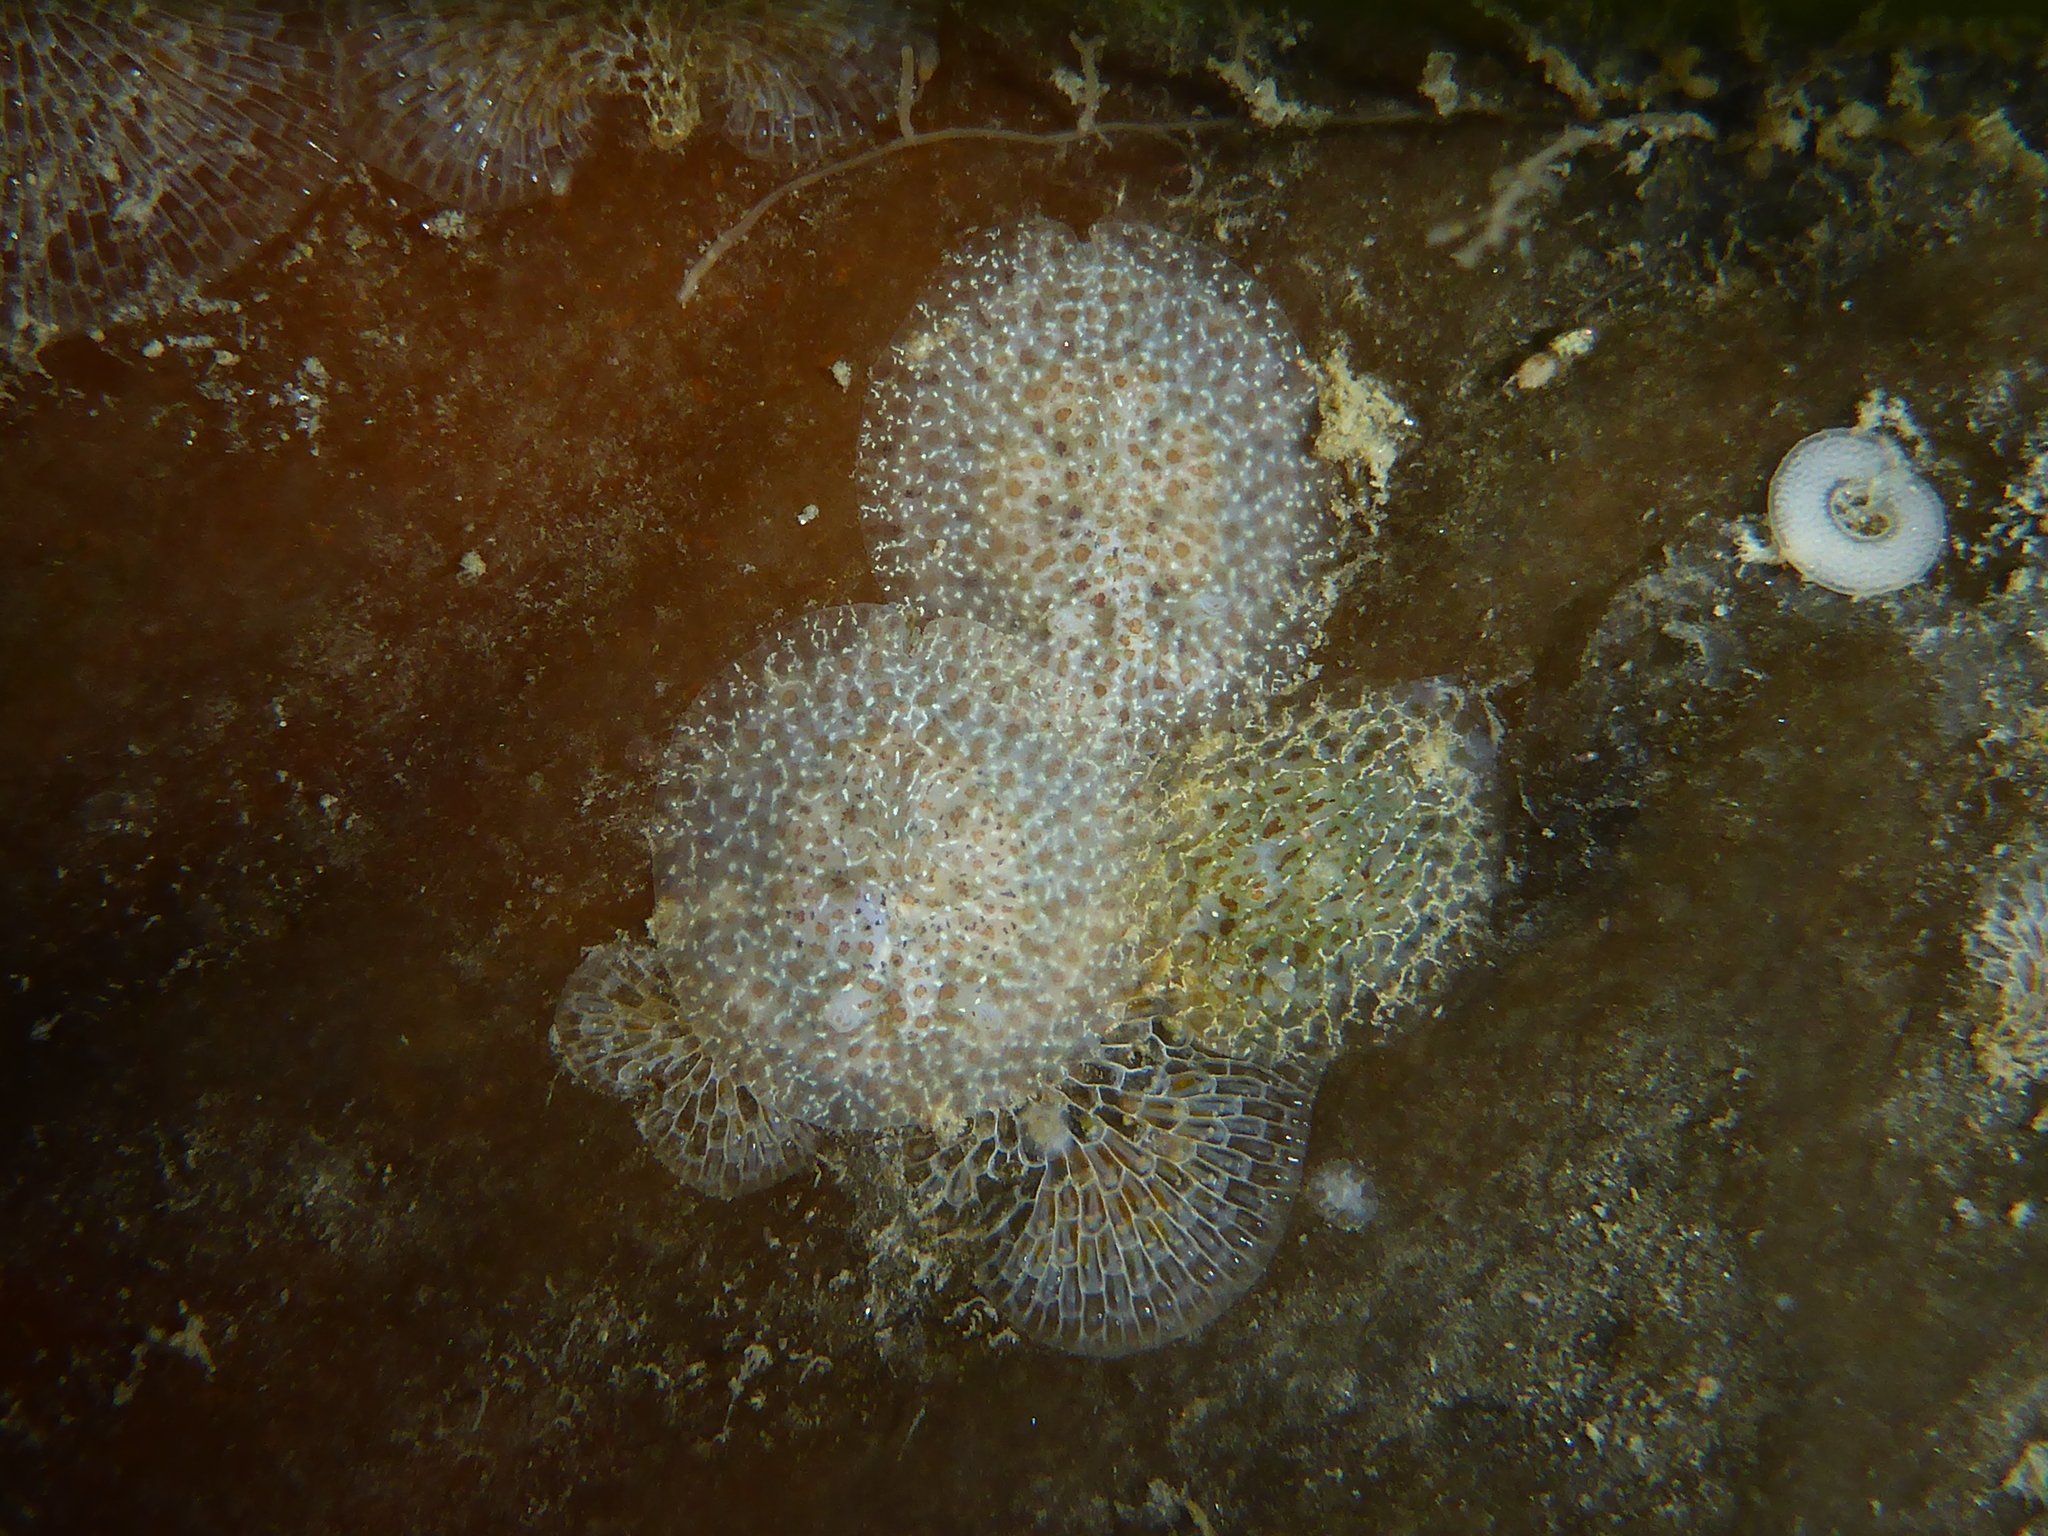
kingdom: Animalia
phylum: Mollusca
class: Gastropoda
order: Nudibranchia
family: Corambidae
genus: Corambe
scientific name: Corambe pacifica
